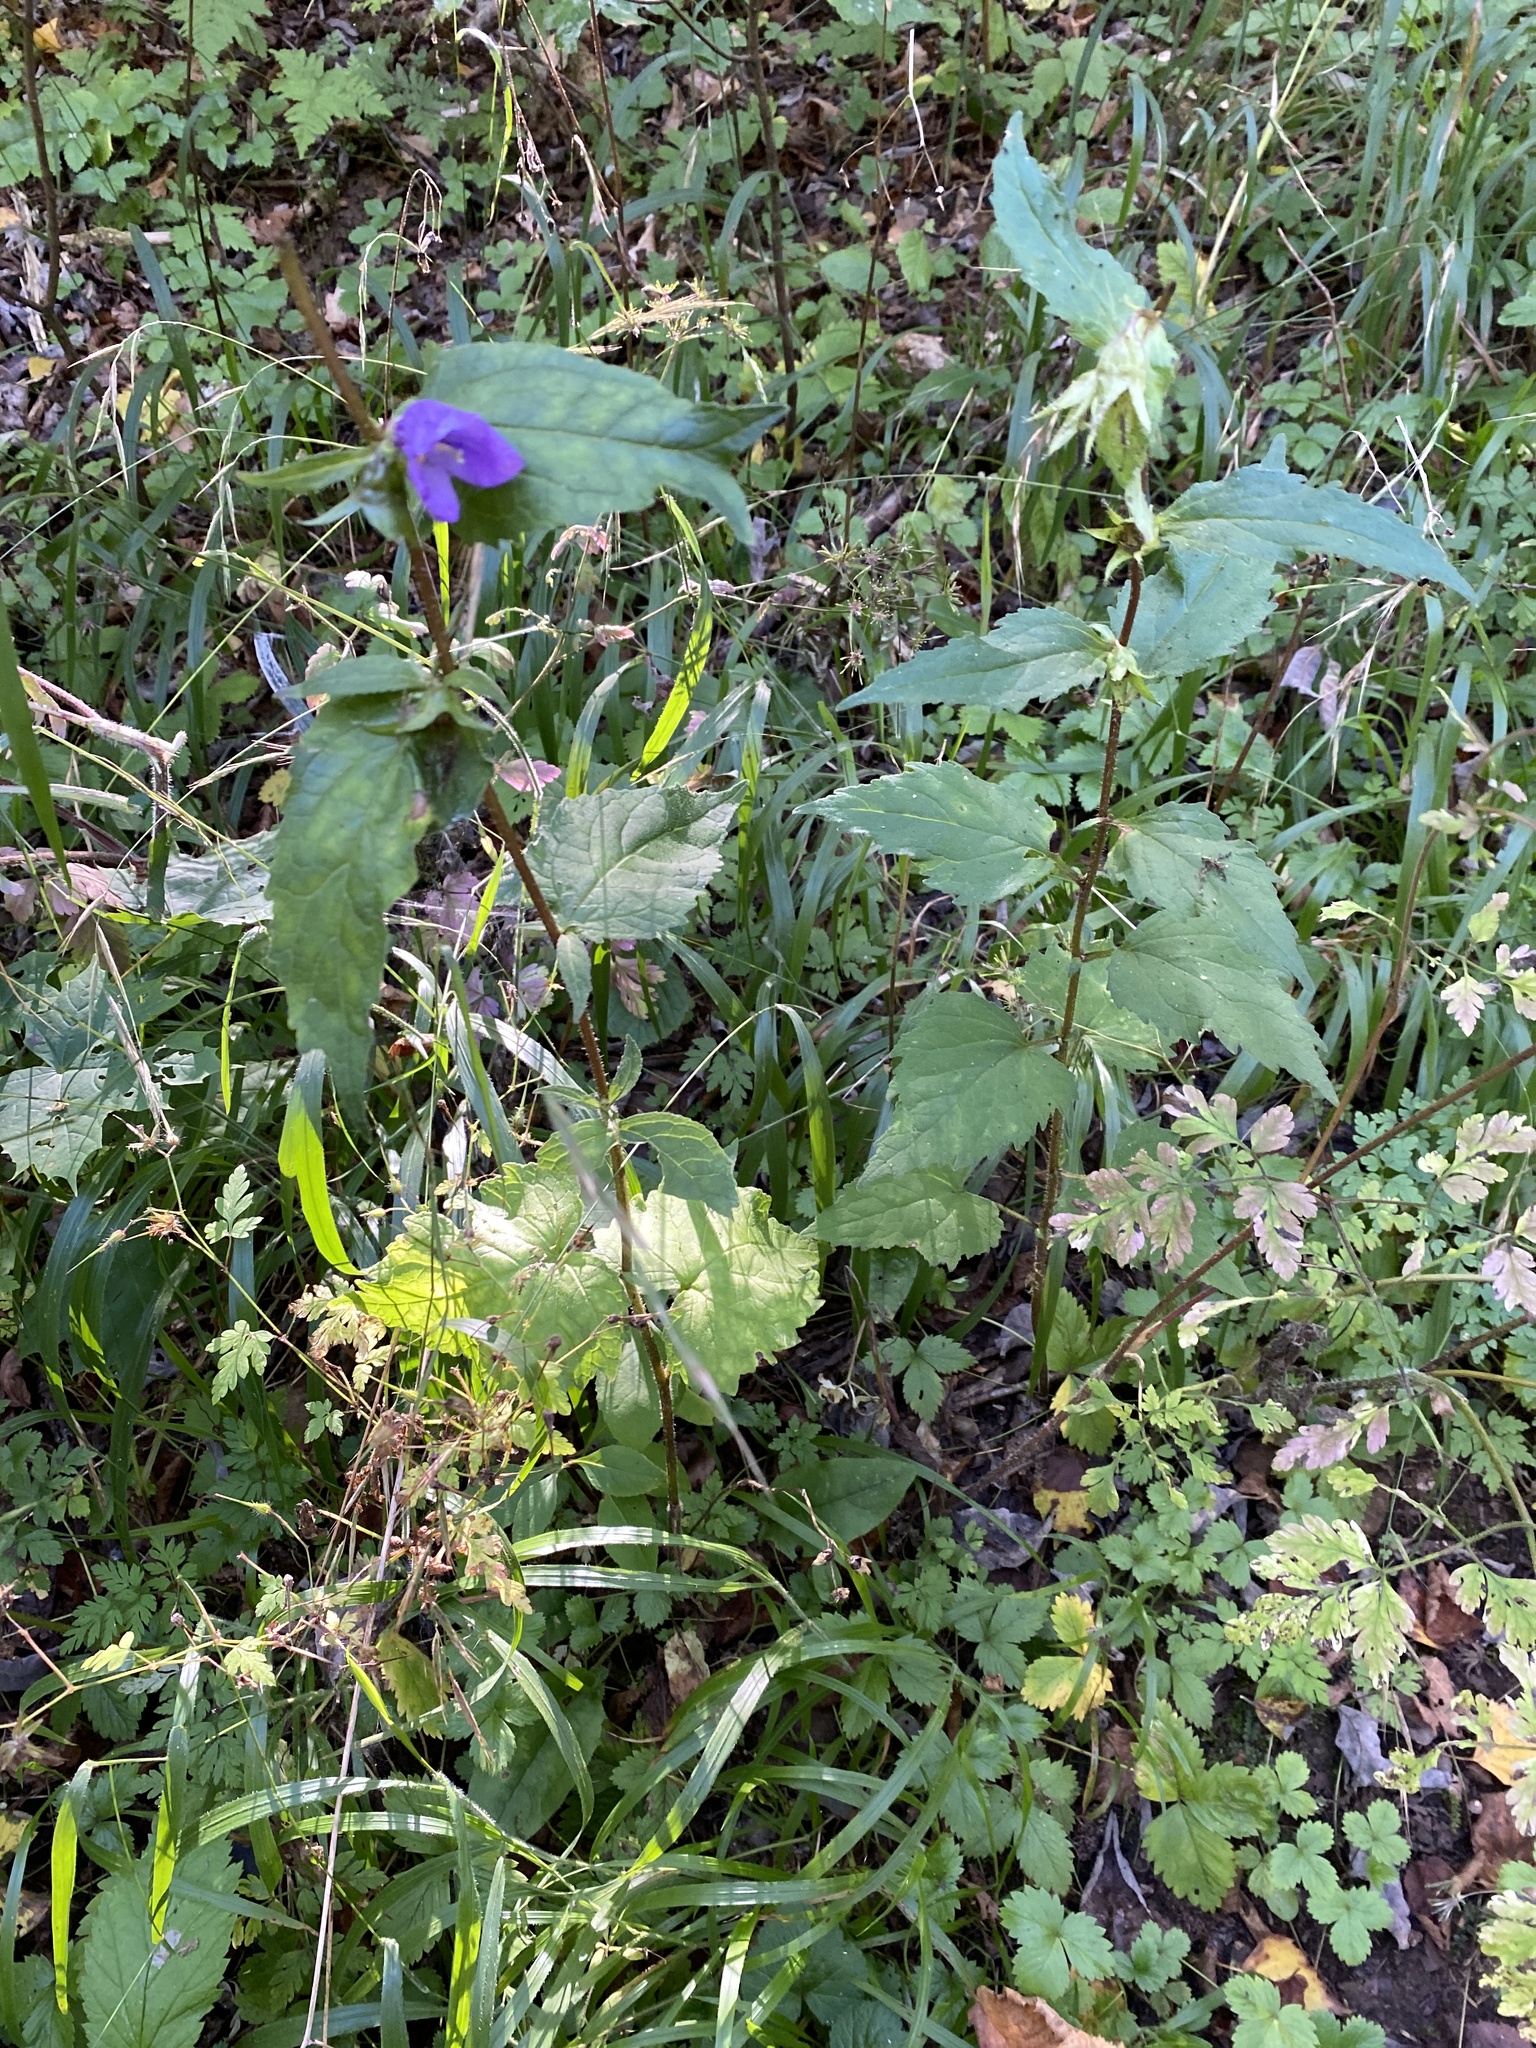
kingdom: Plantae
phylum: Tracheophyta
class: Magnoliopsida
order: Asterales
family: Campanulaceae
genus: Campanula
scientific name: Campanula trachelium
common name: Nettle-leaved bellflower
